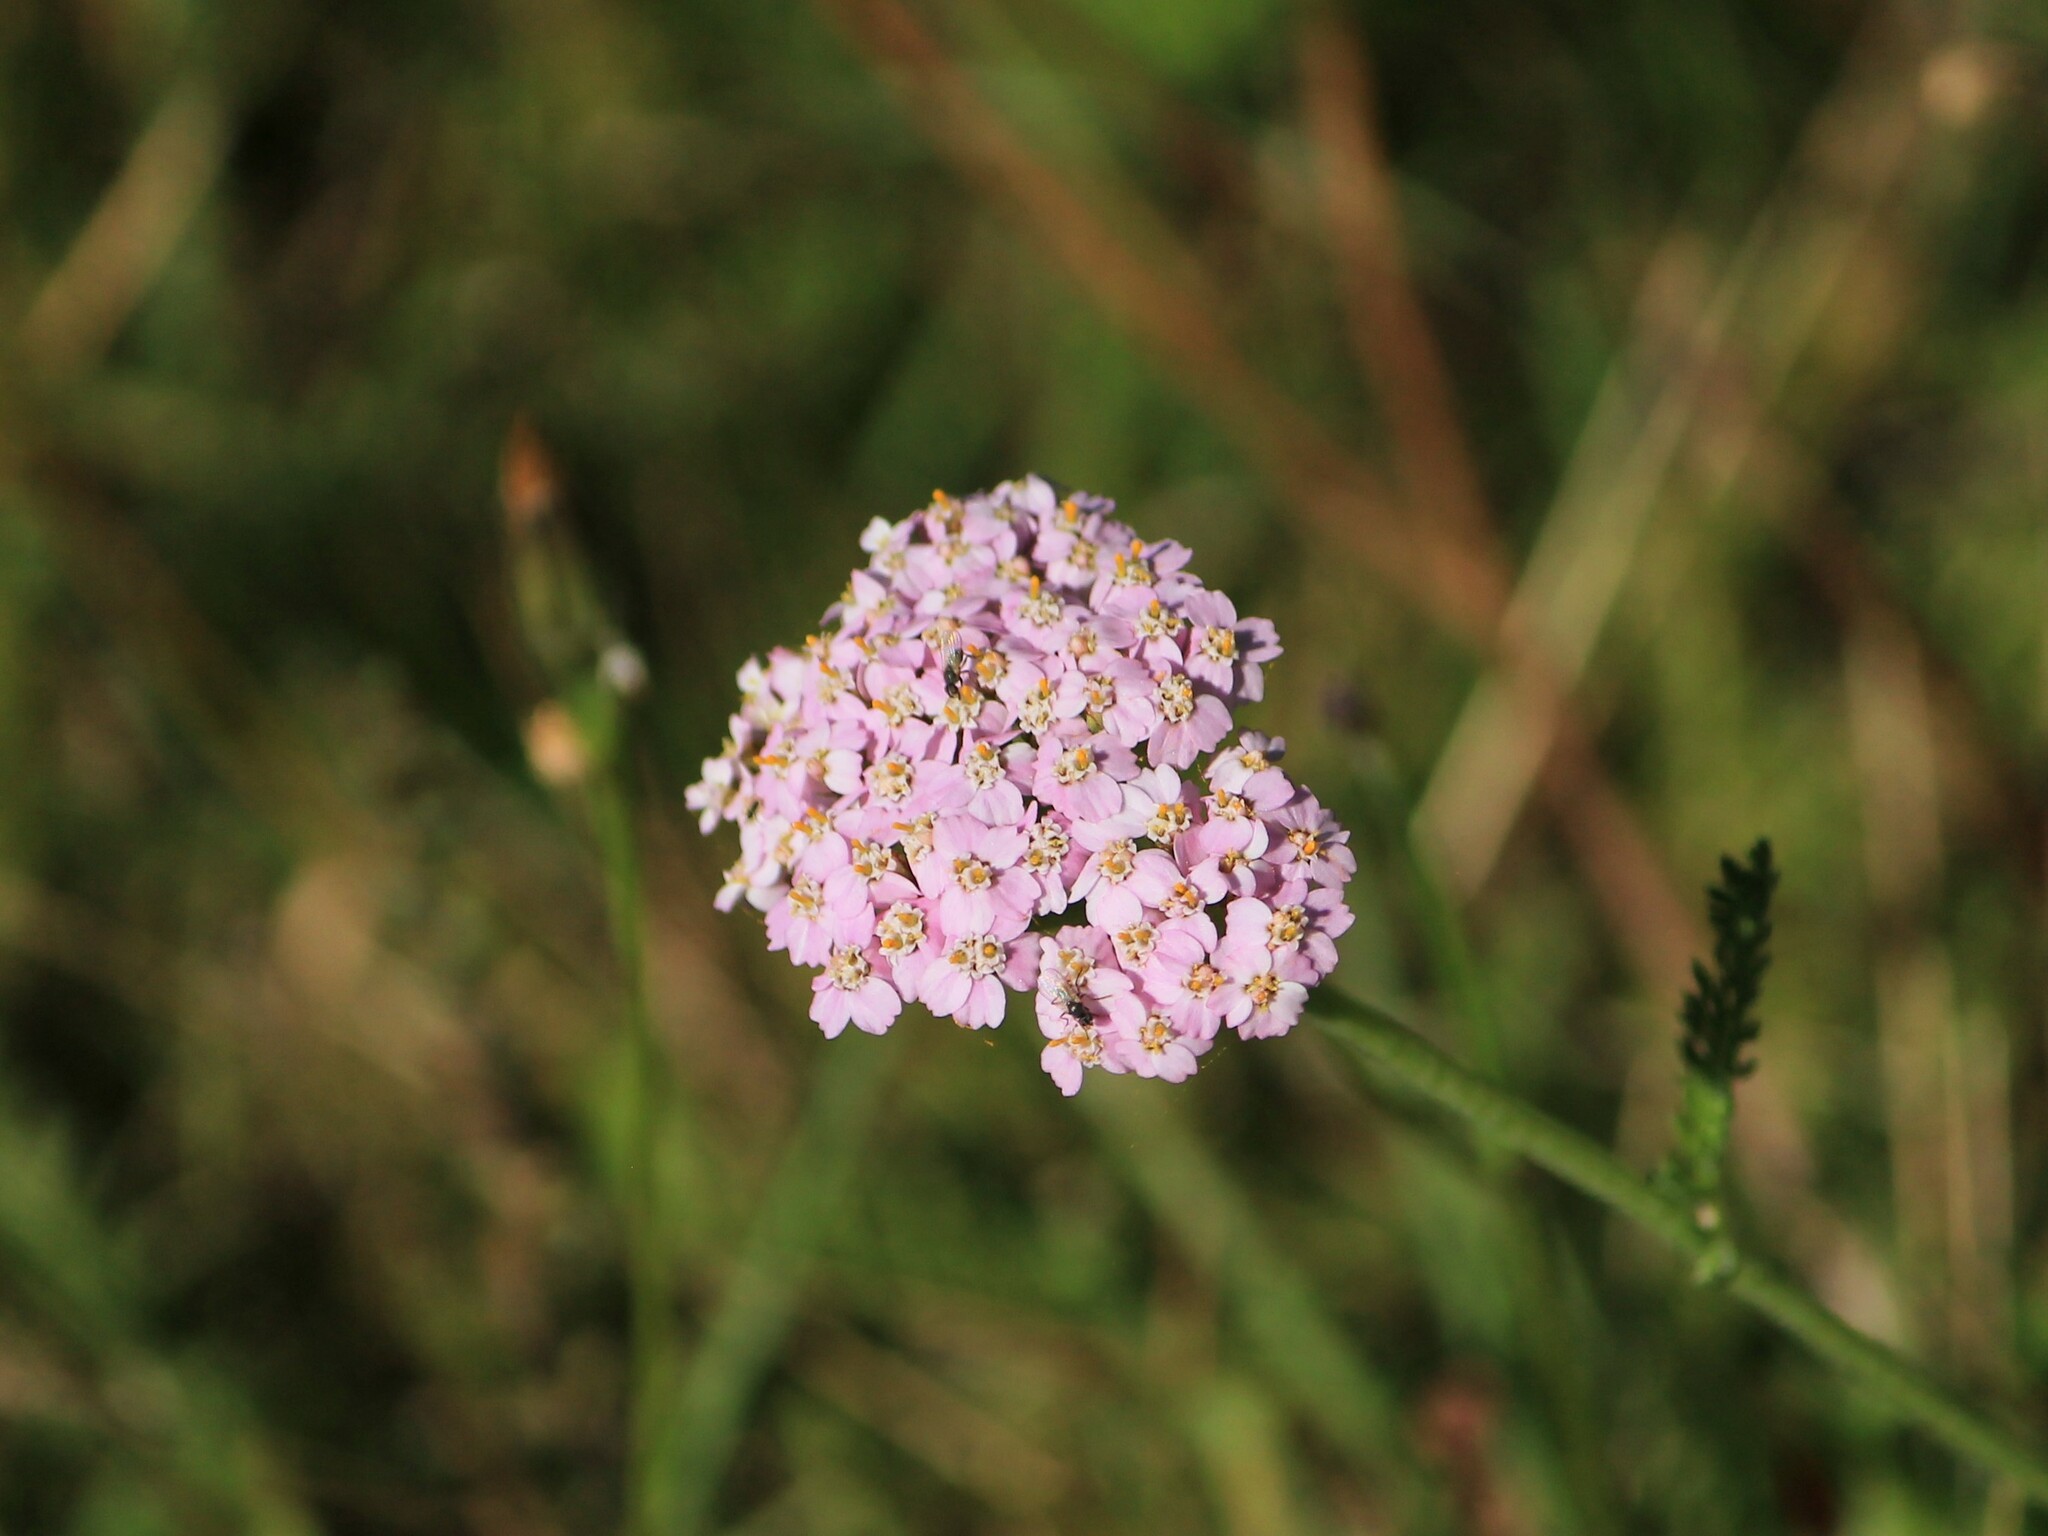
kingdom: Plantae
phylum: Tracheophyta
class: Magnoliopsida
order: Asterales
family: Asteraceae
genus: Achillea
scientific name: Achillea millefolium
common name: Yarrow
